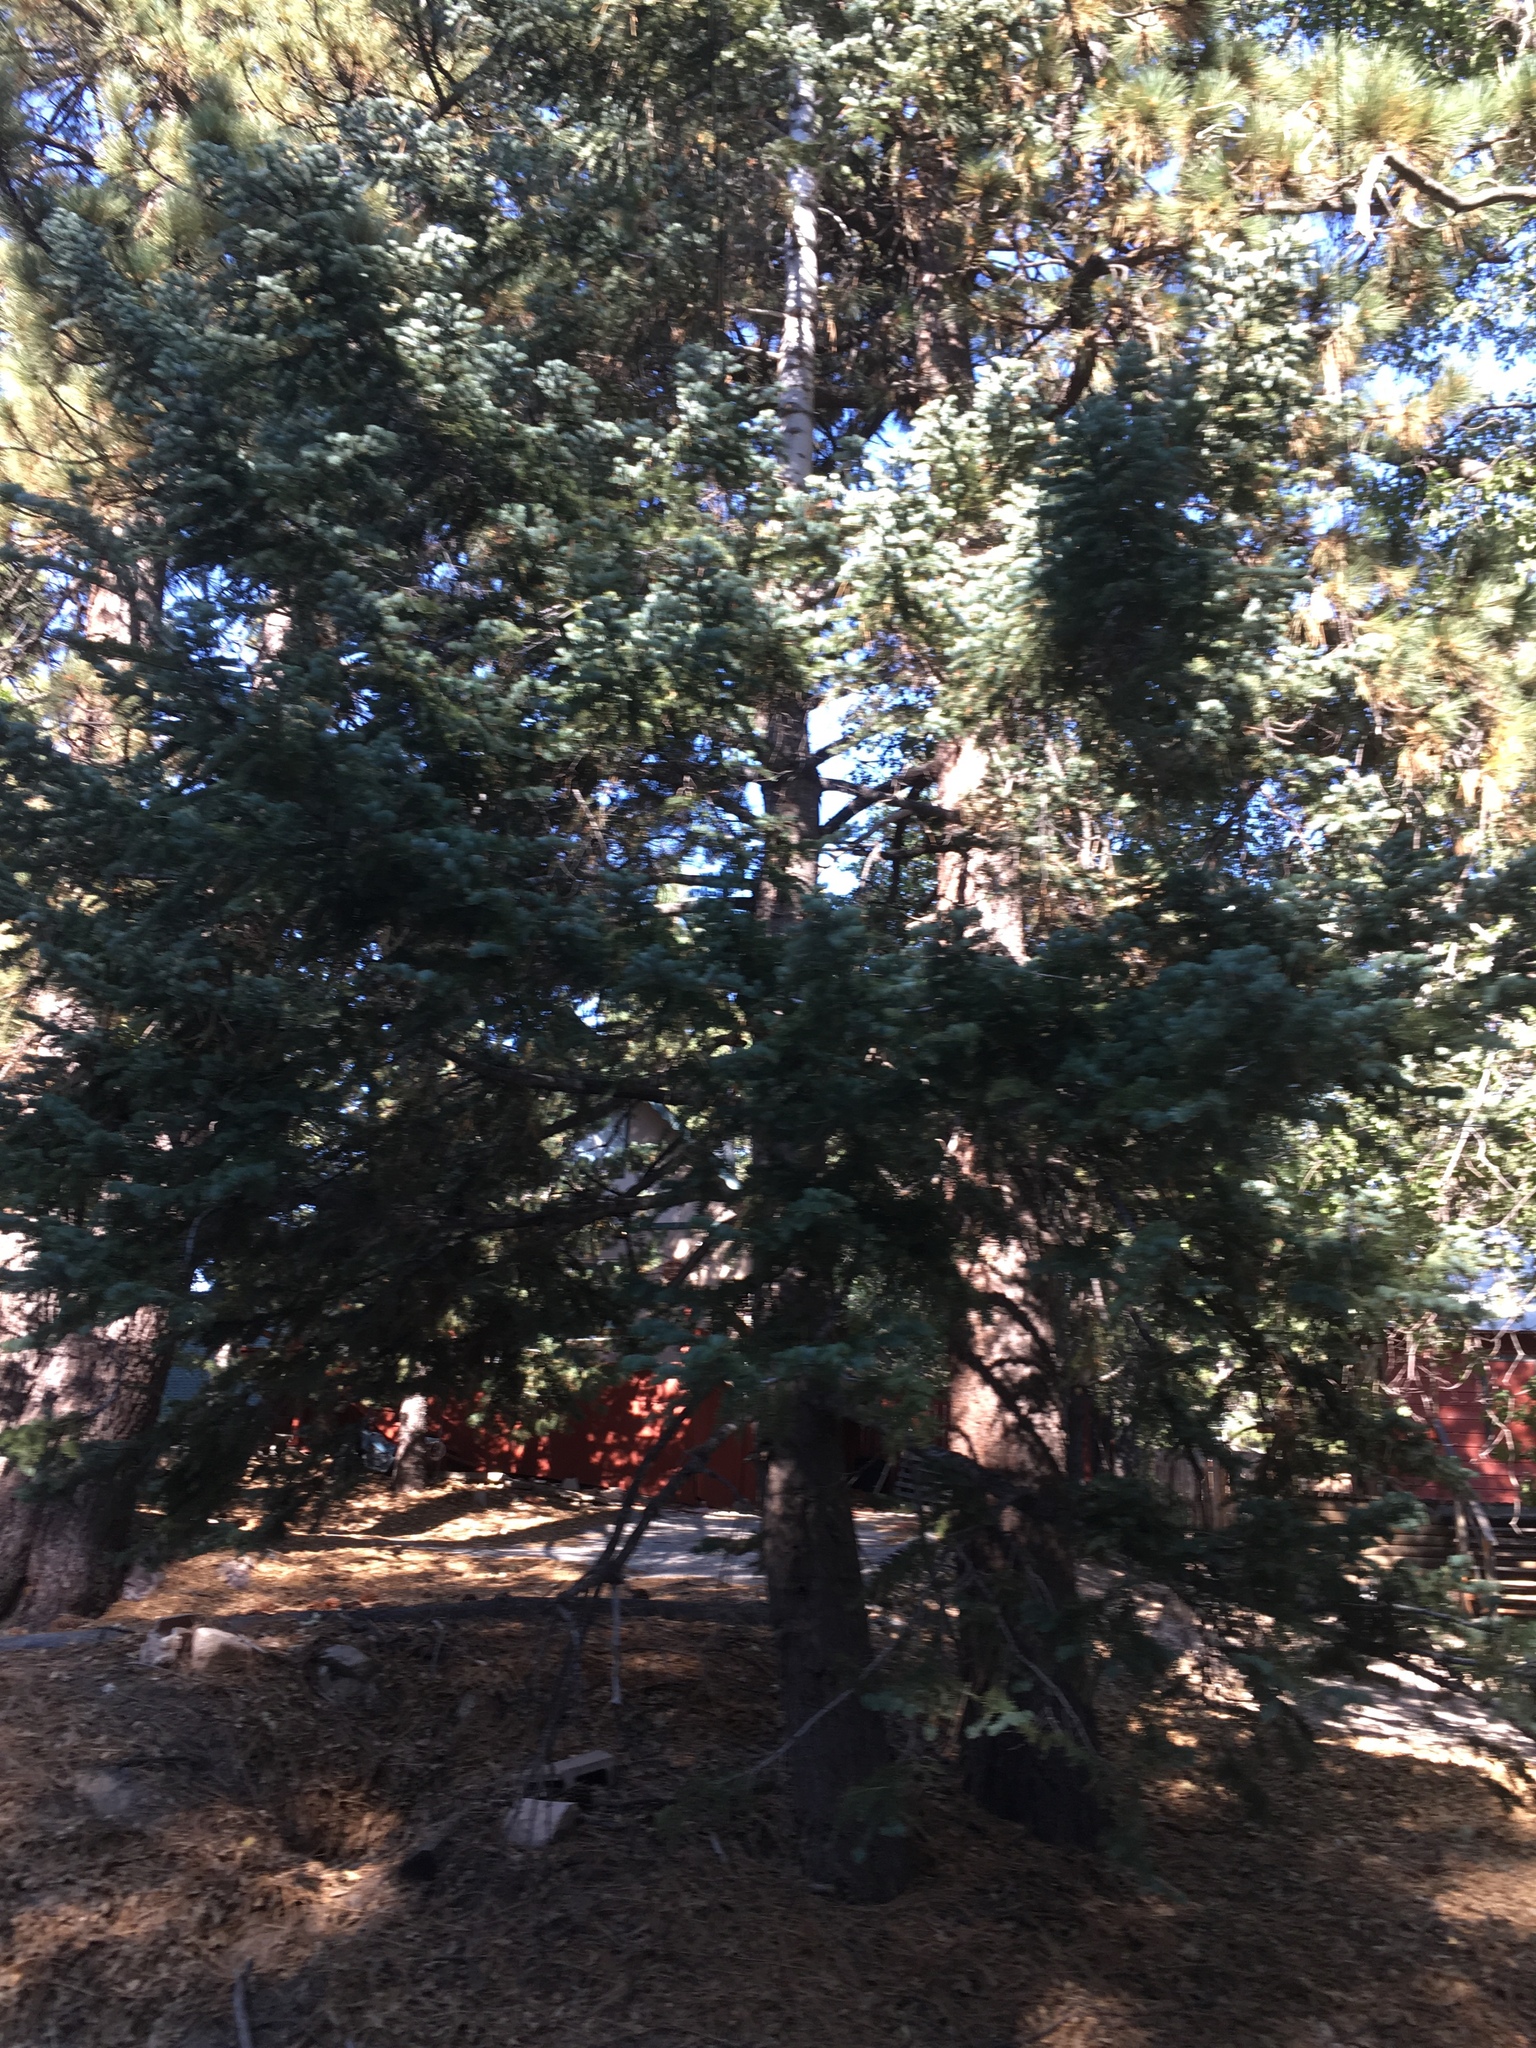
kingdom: Plantae
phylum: Tracheophyta
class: Pinopsida
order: Pinales
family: Pinaceae
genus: Abies
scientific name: Abies concolor
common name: Colorado fir
